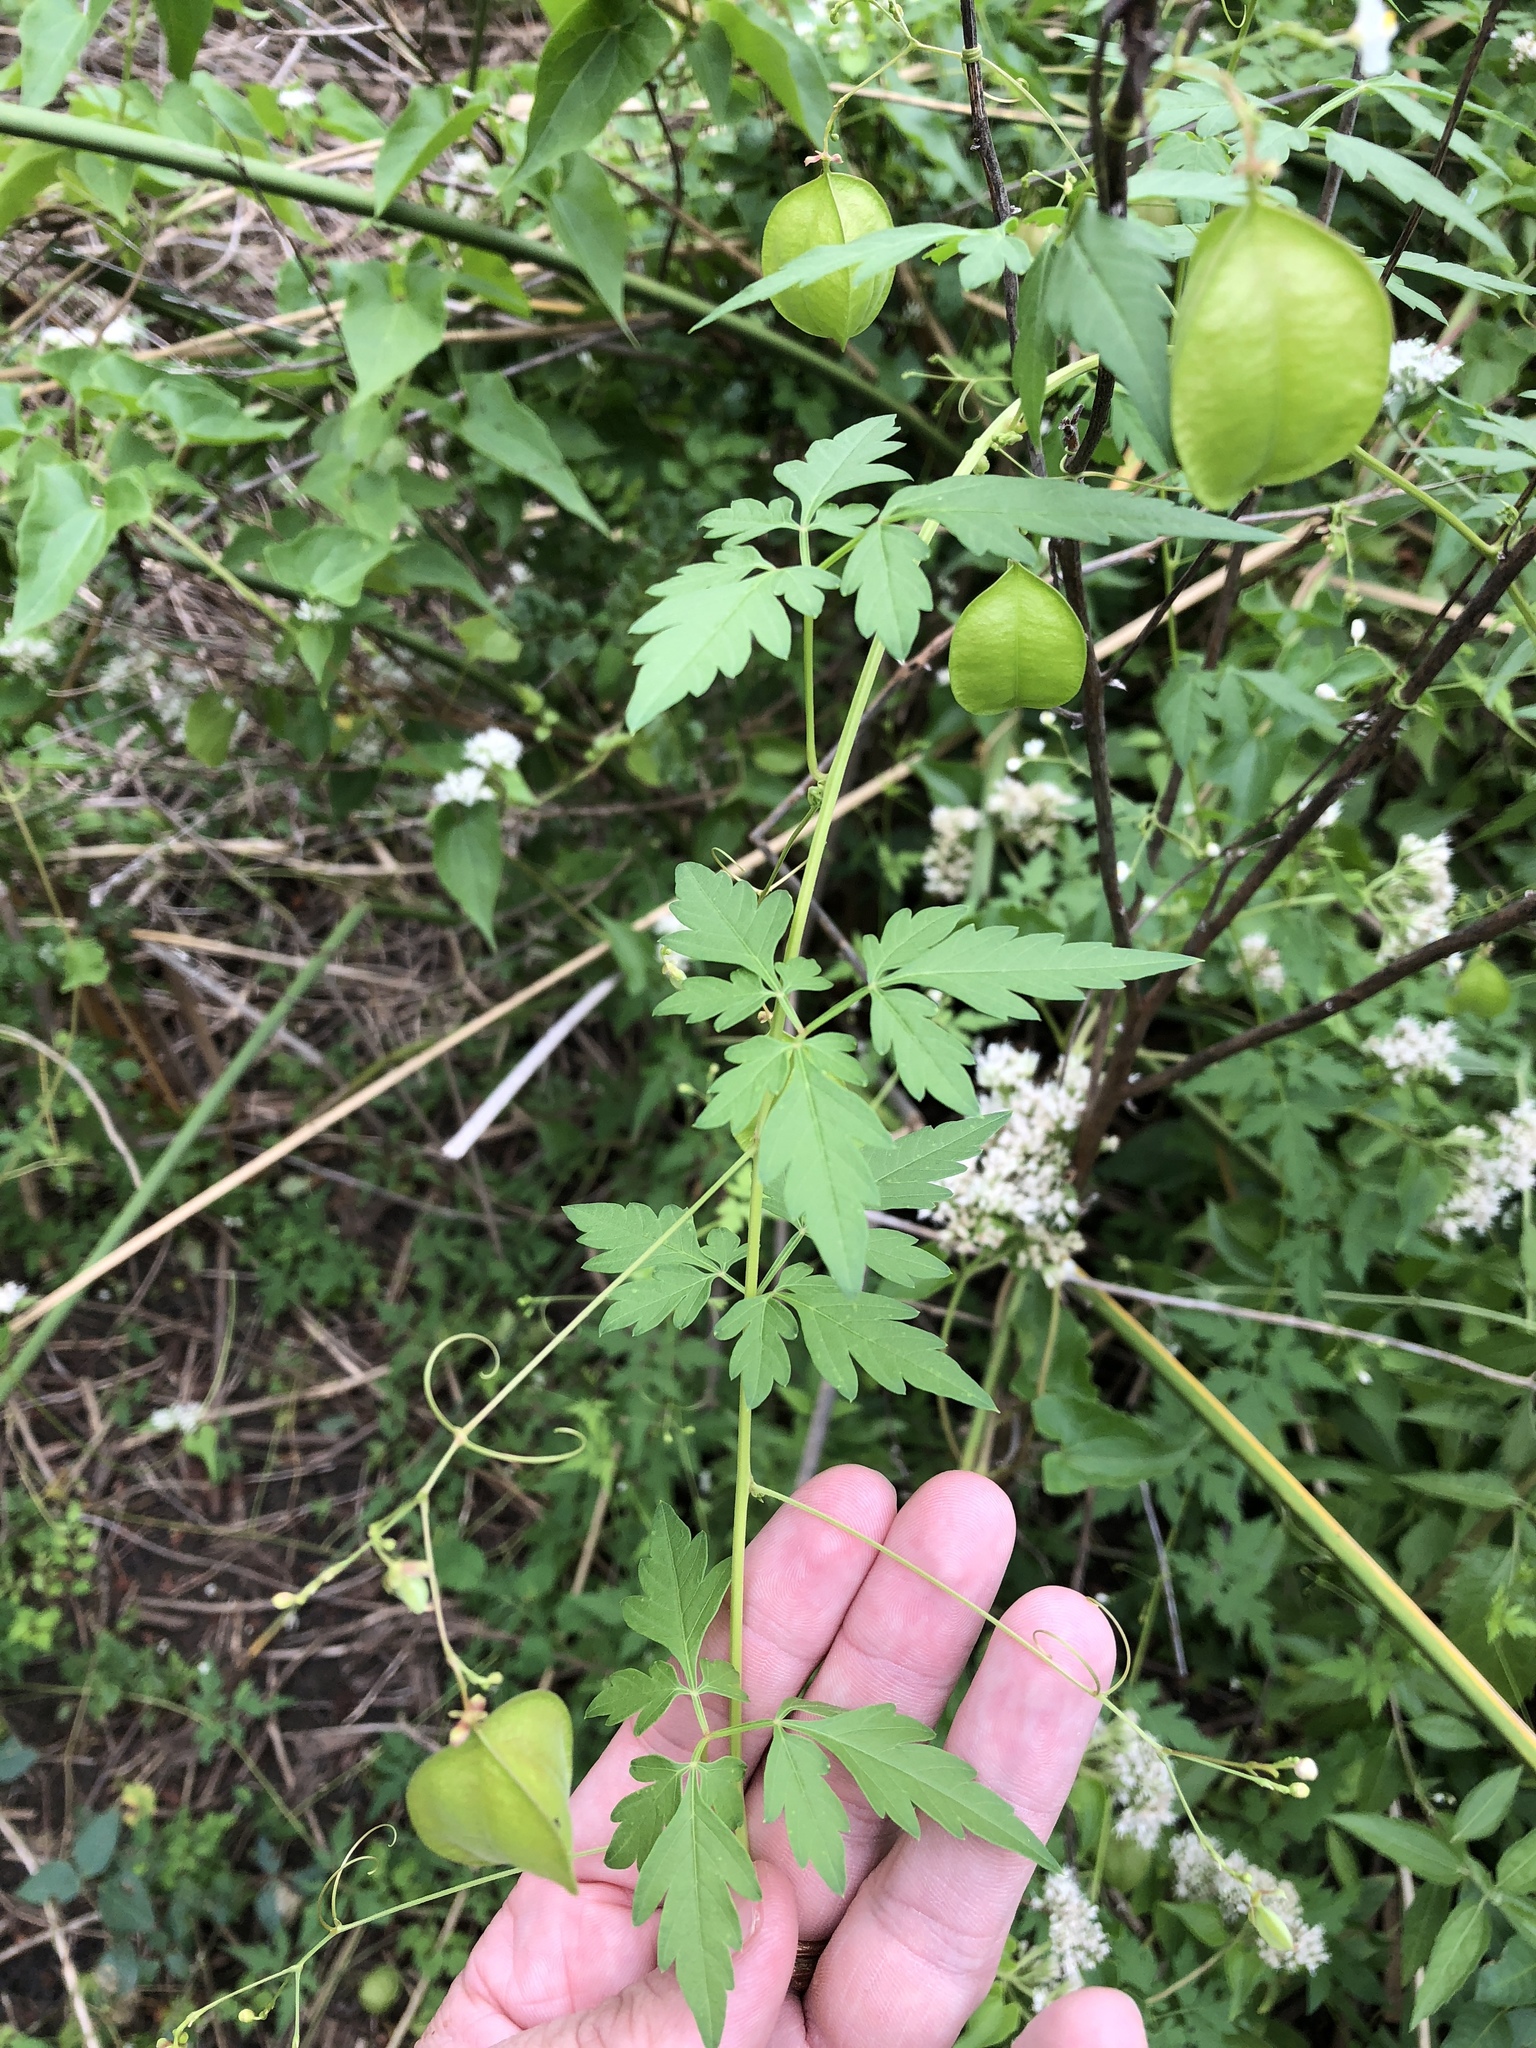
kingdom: Plantae
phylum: Tracheophyta
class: Magnoliopsida
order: Sapindales
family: Sapindaceae
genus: Cardiospermum
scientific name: Cardiospermum halicacabum
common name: Balloon vine
